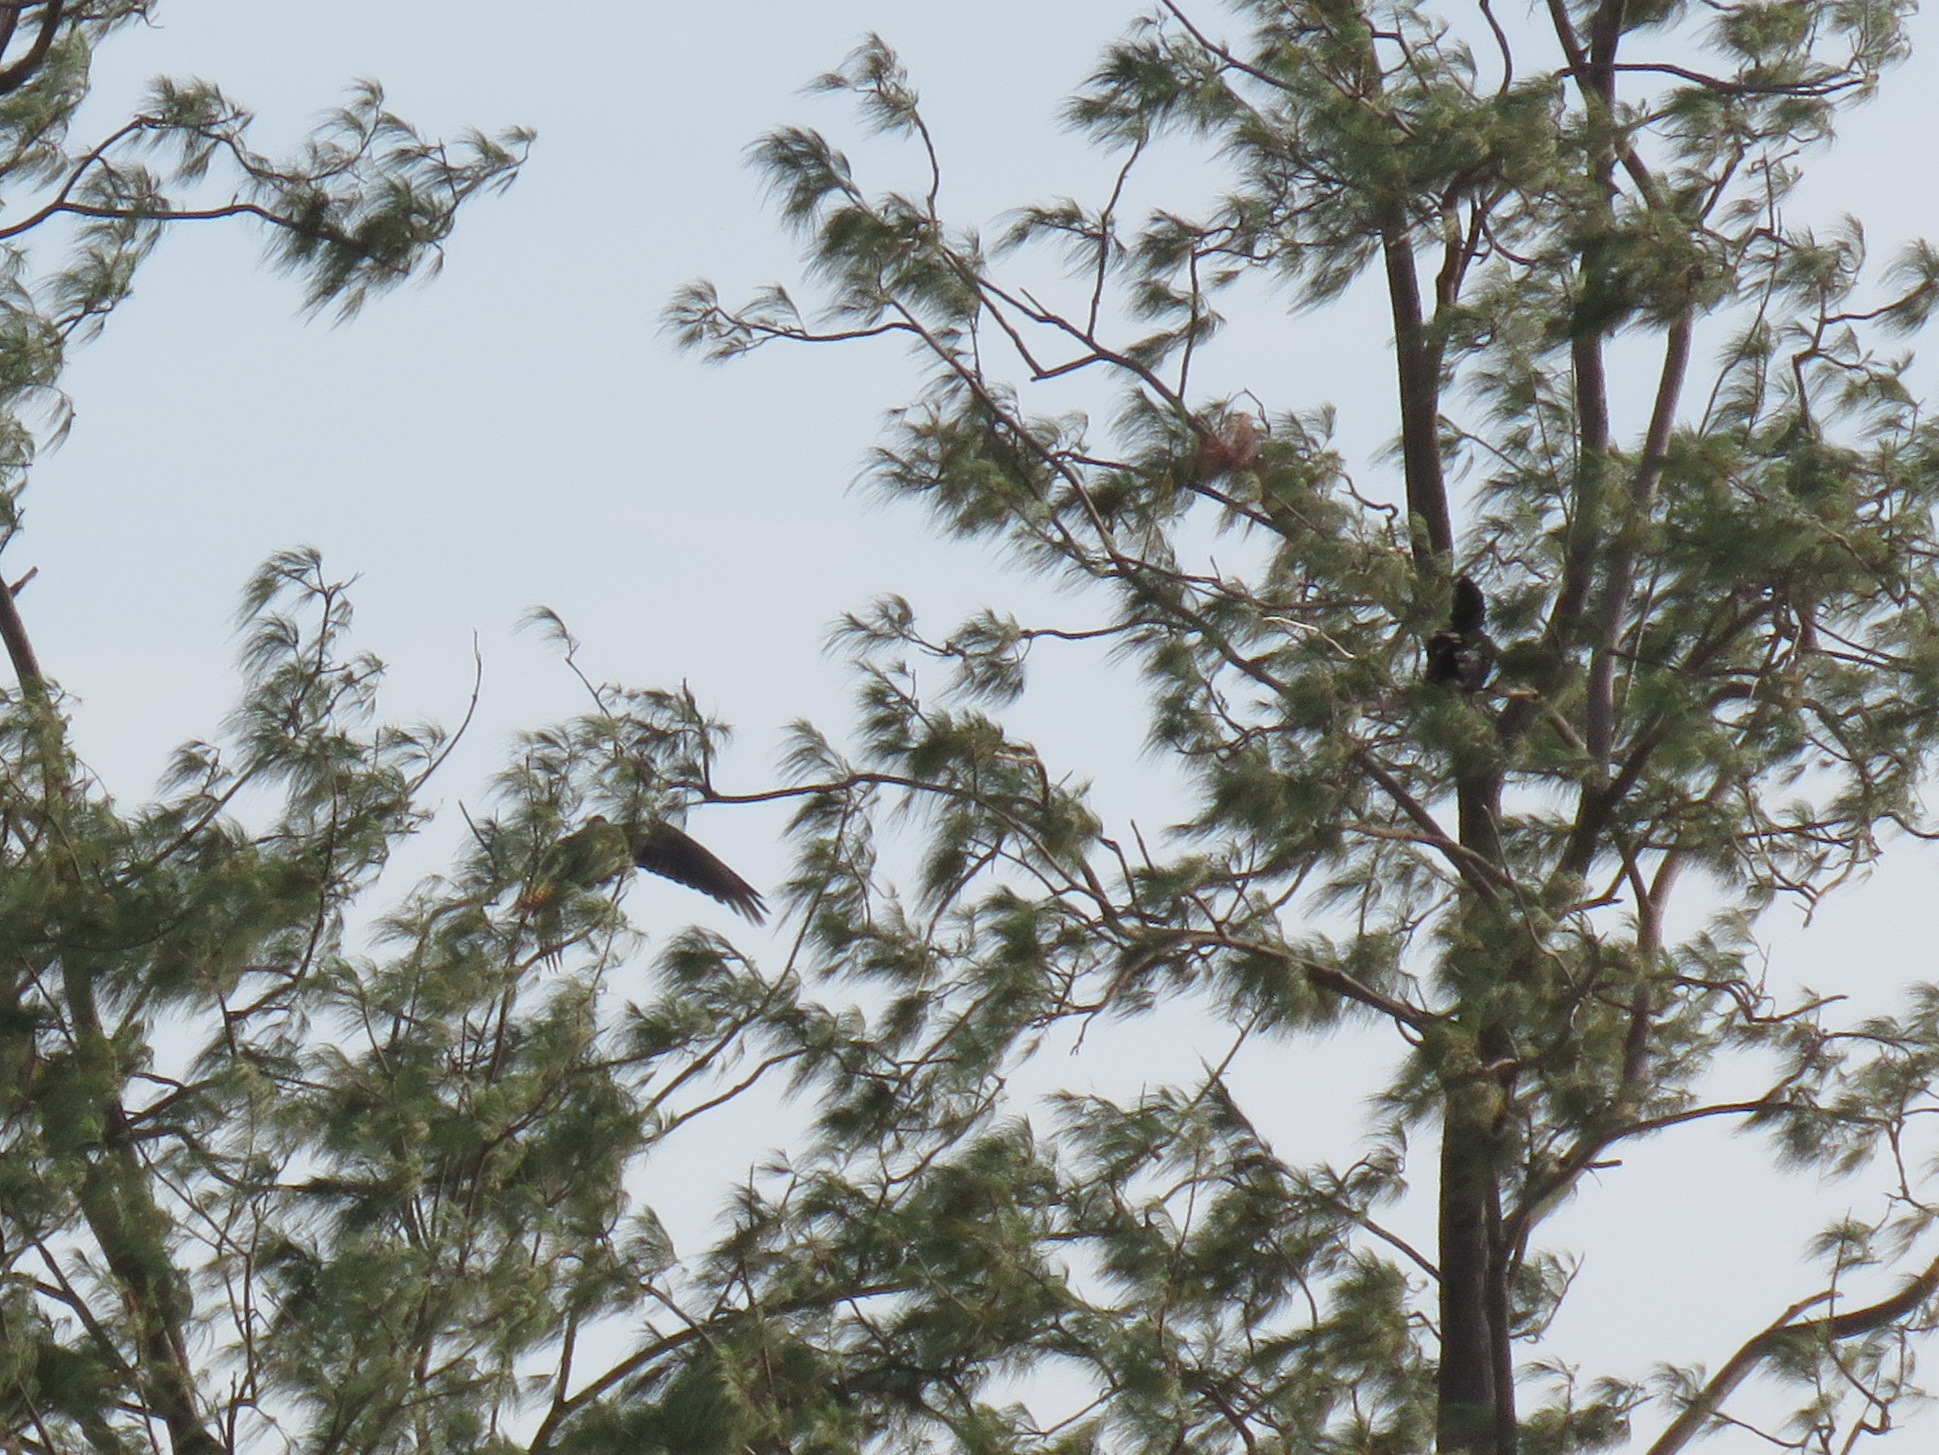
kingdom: Animalia
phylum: Chordata
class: Aves
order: Psittaciformes
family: Psittacidae
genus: Calyptorhynchus
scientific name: Calyptorhynchus banksii
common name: Red-tailed black cockatoo
